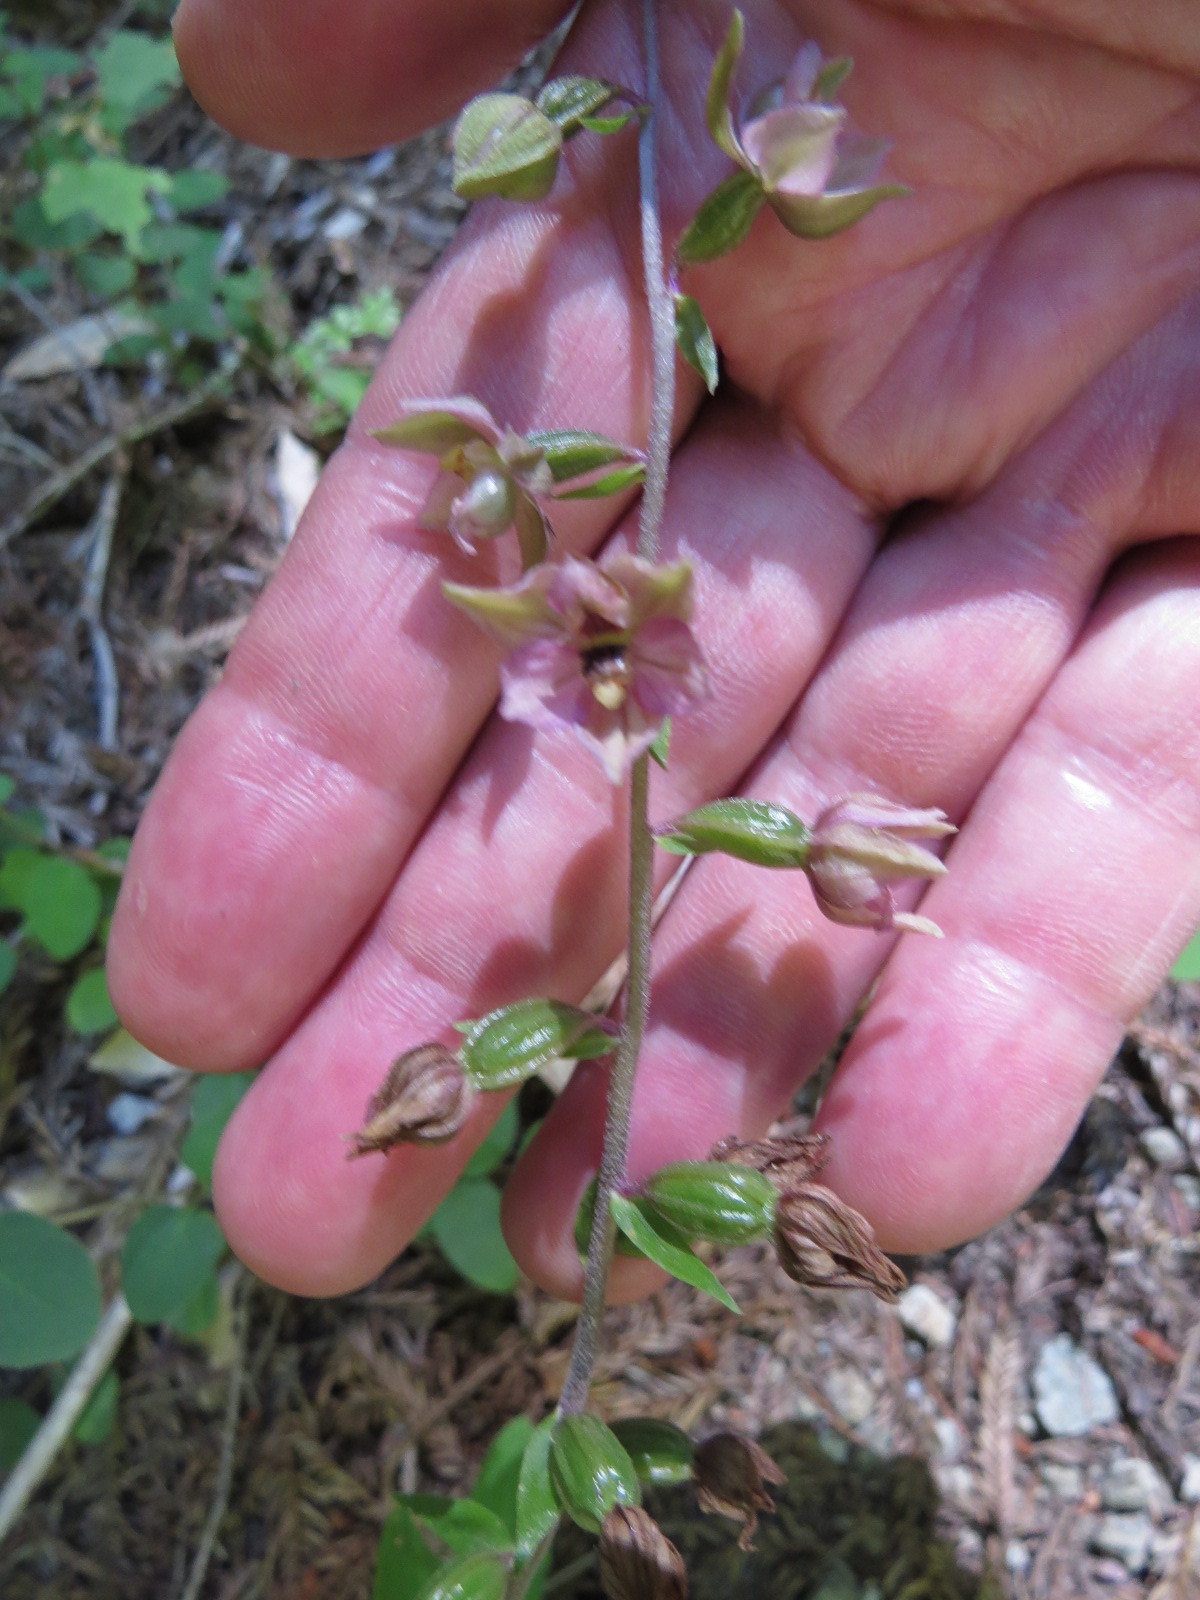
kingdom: Plantae
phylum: Tracheophyta
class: Liliopsida
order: Asparagales
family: Orchidaceae
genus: Epipactis
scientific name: Epipactis helleborine
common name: Broad-leaved helleborine
